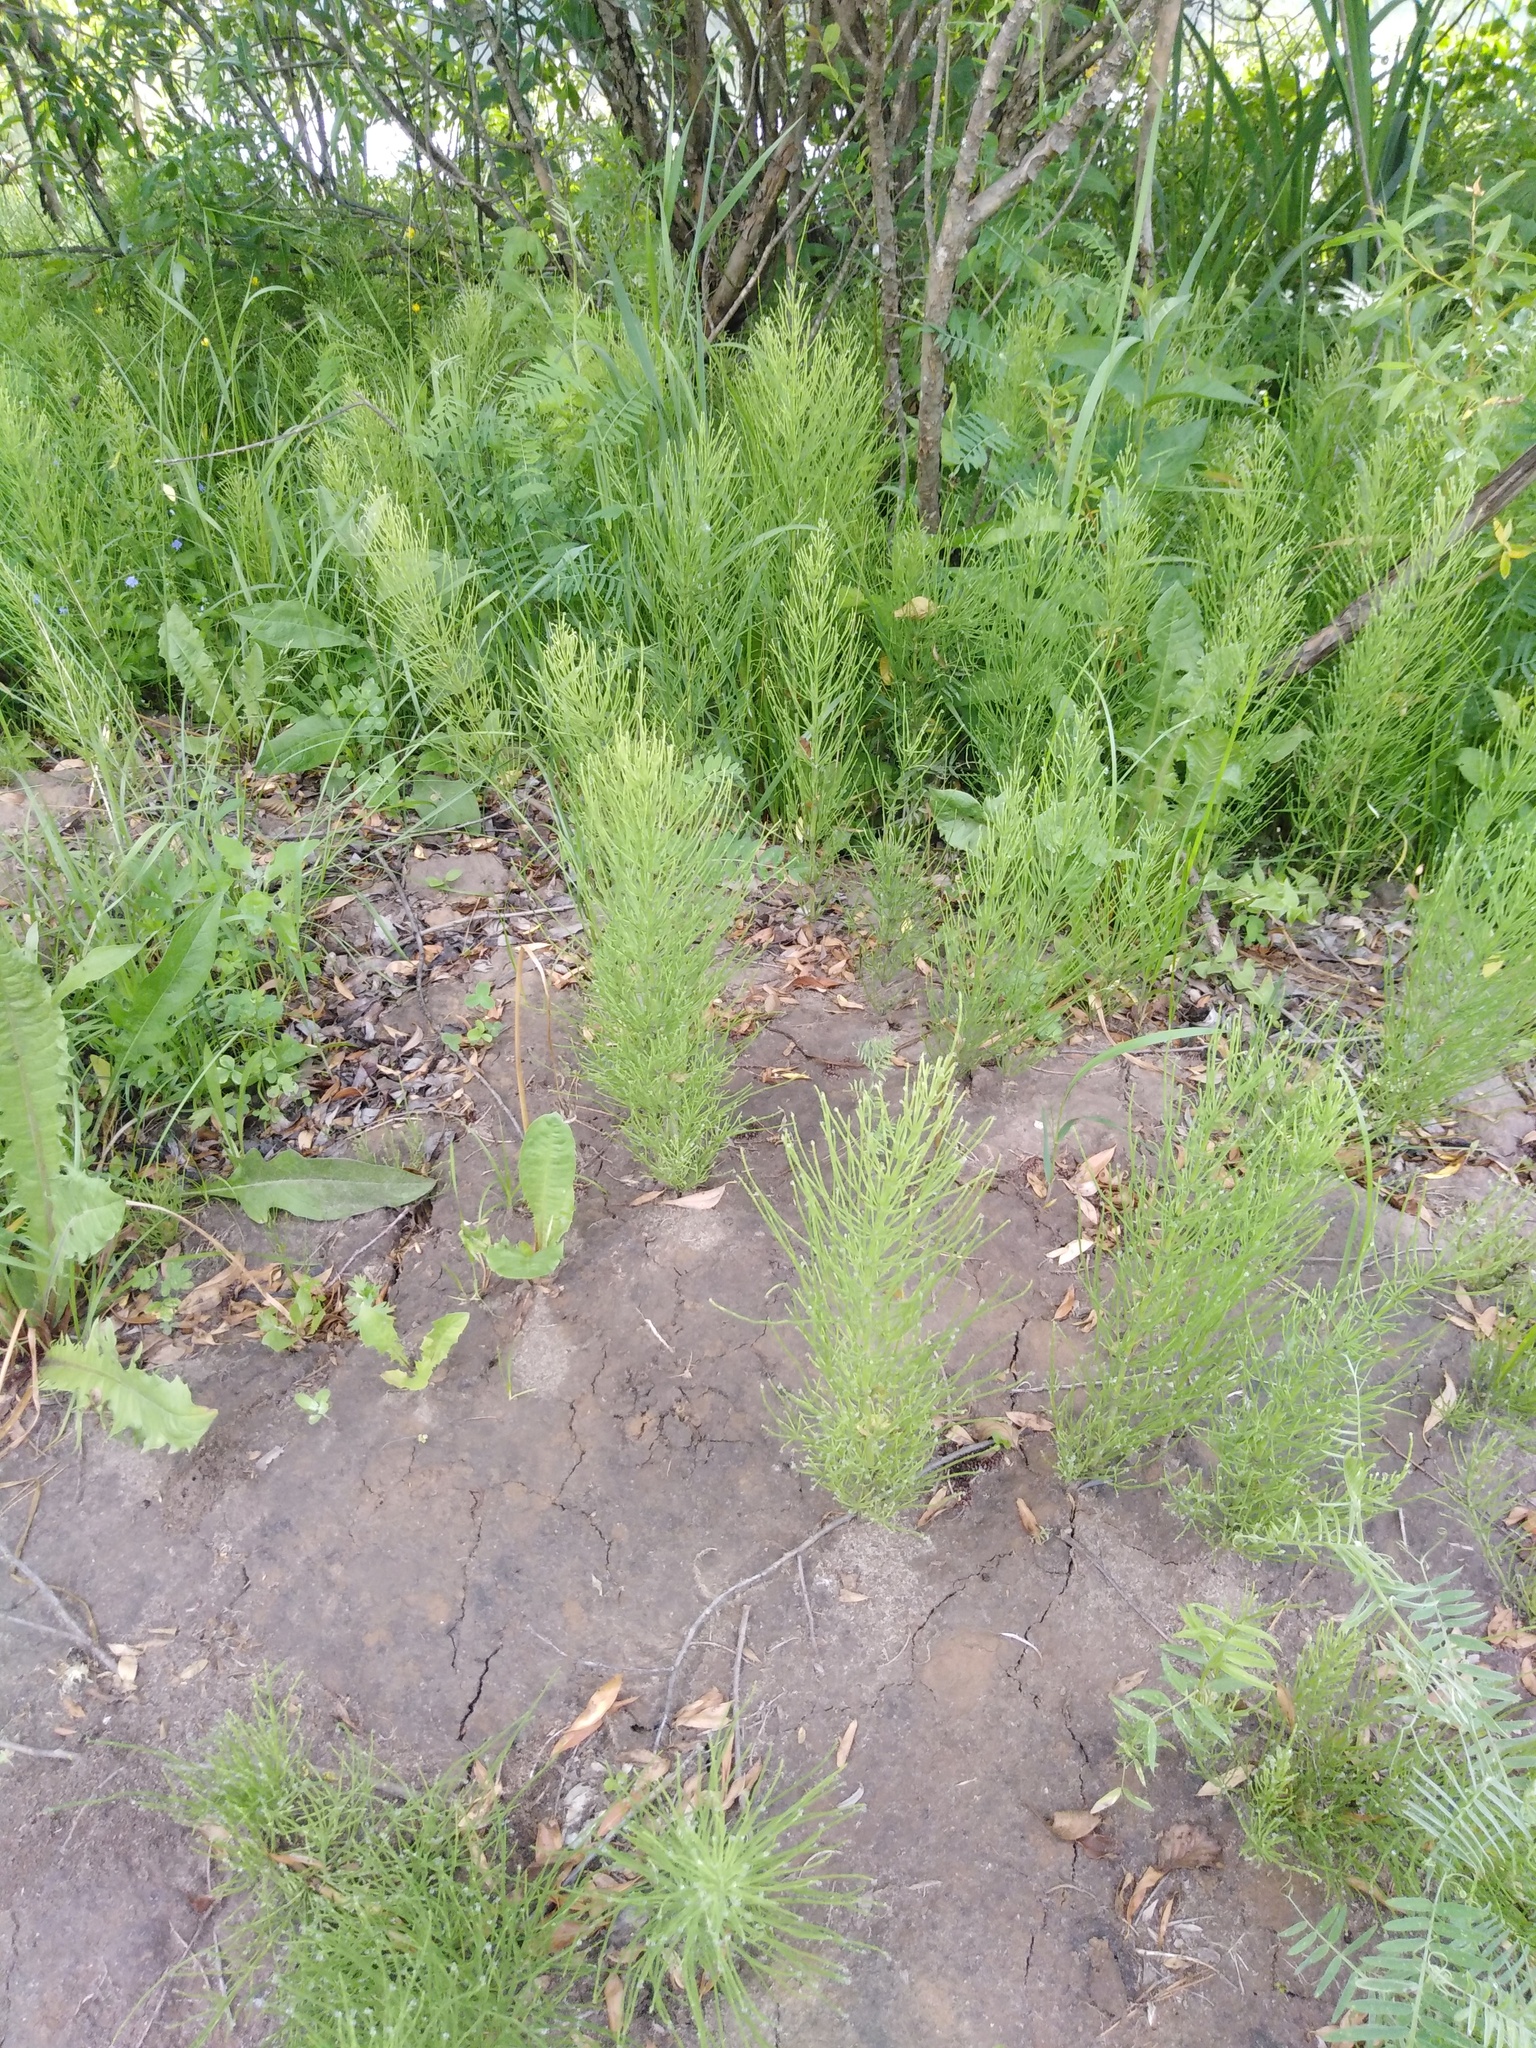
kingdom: Plantae
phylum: Tracheophyta
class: Polypodiopsida
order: Equisetales
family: Equisetaceae
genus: Equisetum
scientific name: Equisetum arvense
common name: Field horsetail
